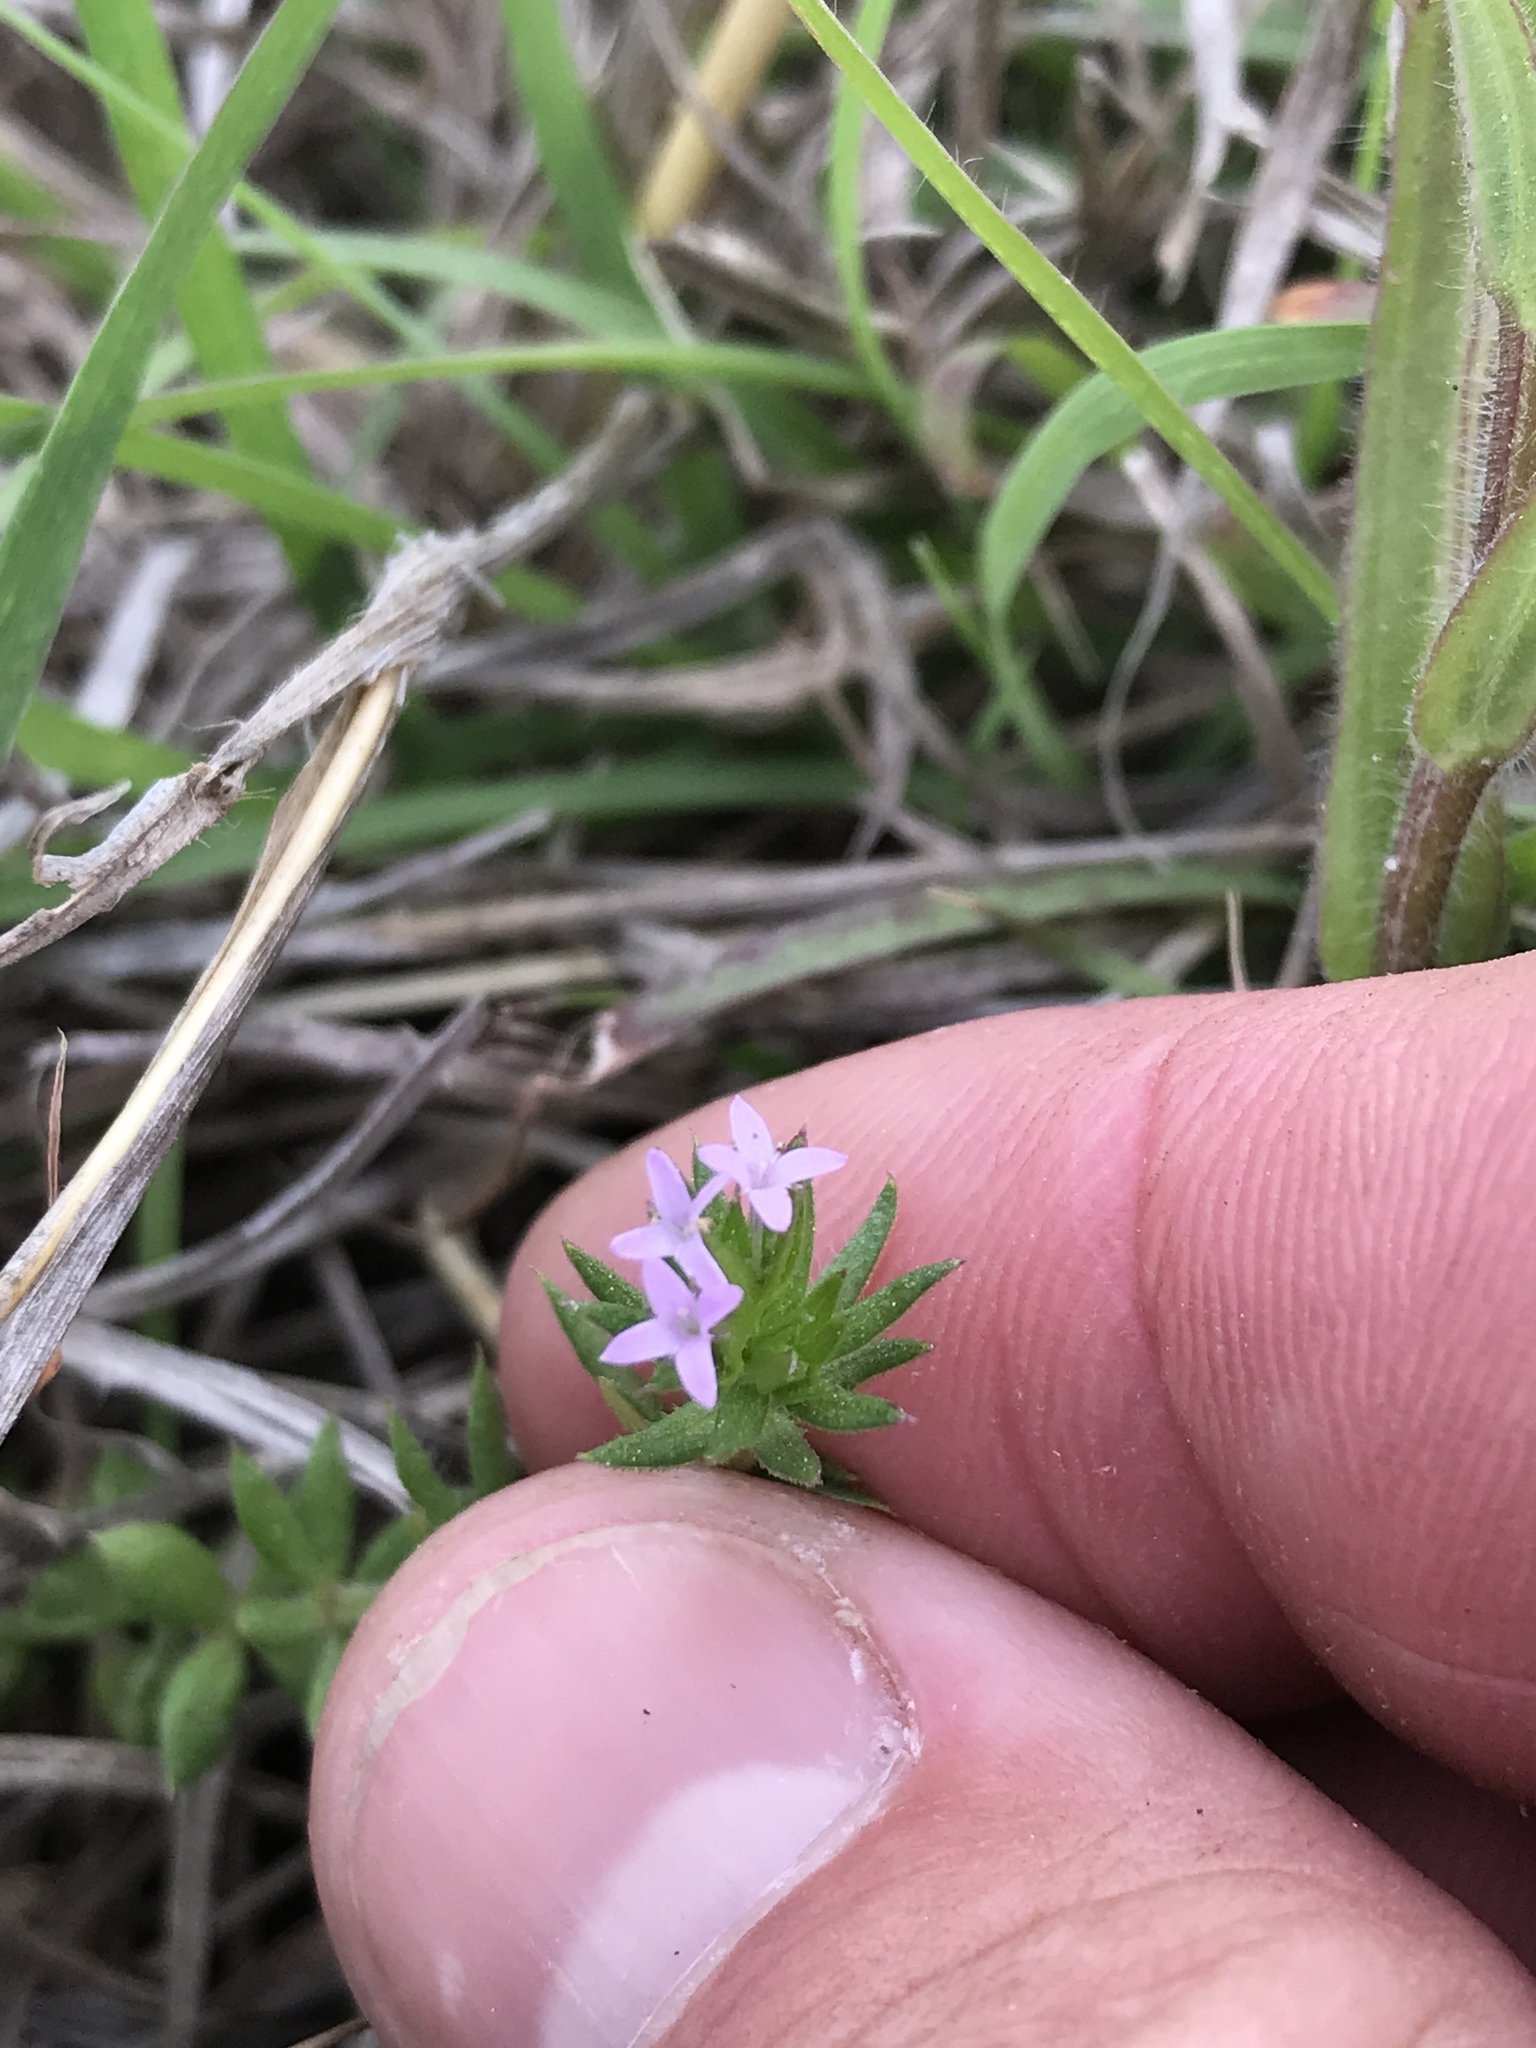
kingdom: Plantae
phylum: Tracheophyta
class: Magnoliopsida
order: Gentianales
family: Rubiaceae
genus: Sherardia
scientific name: Sherardia arvensis
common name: Field madder
